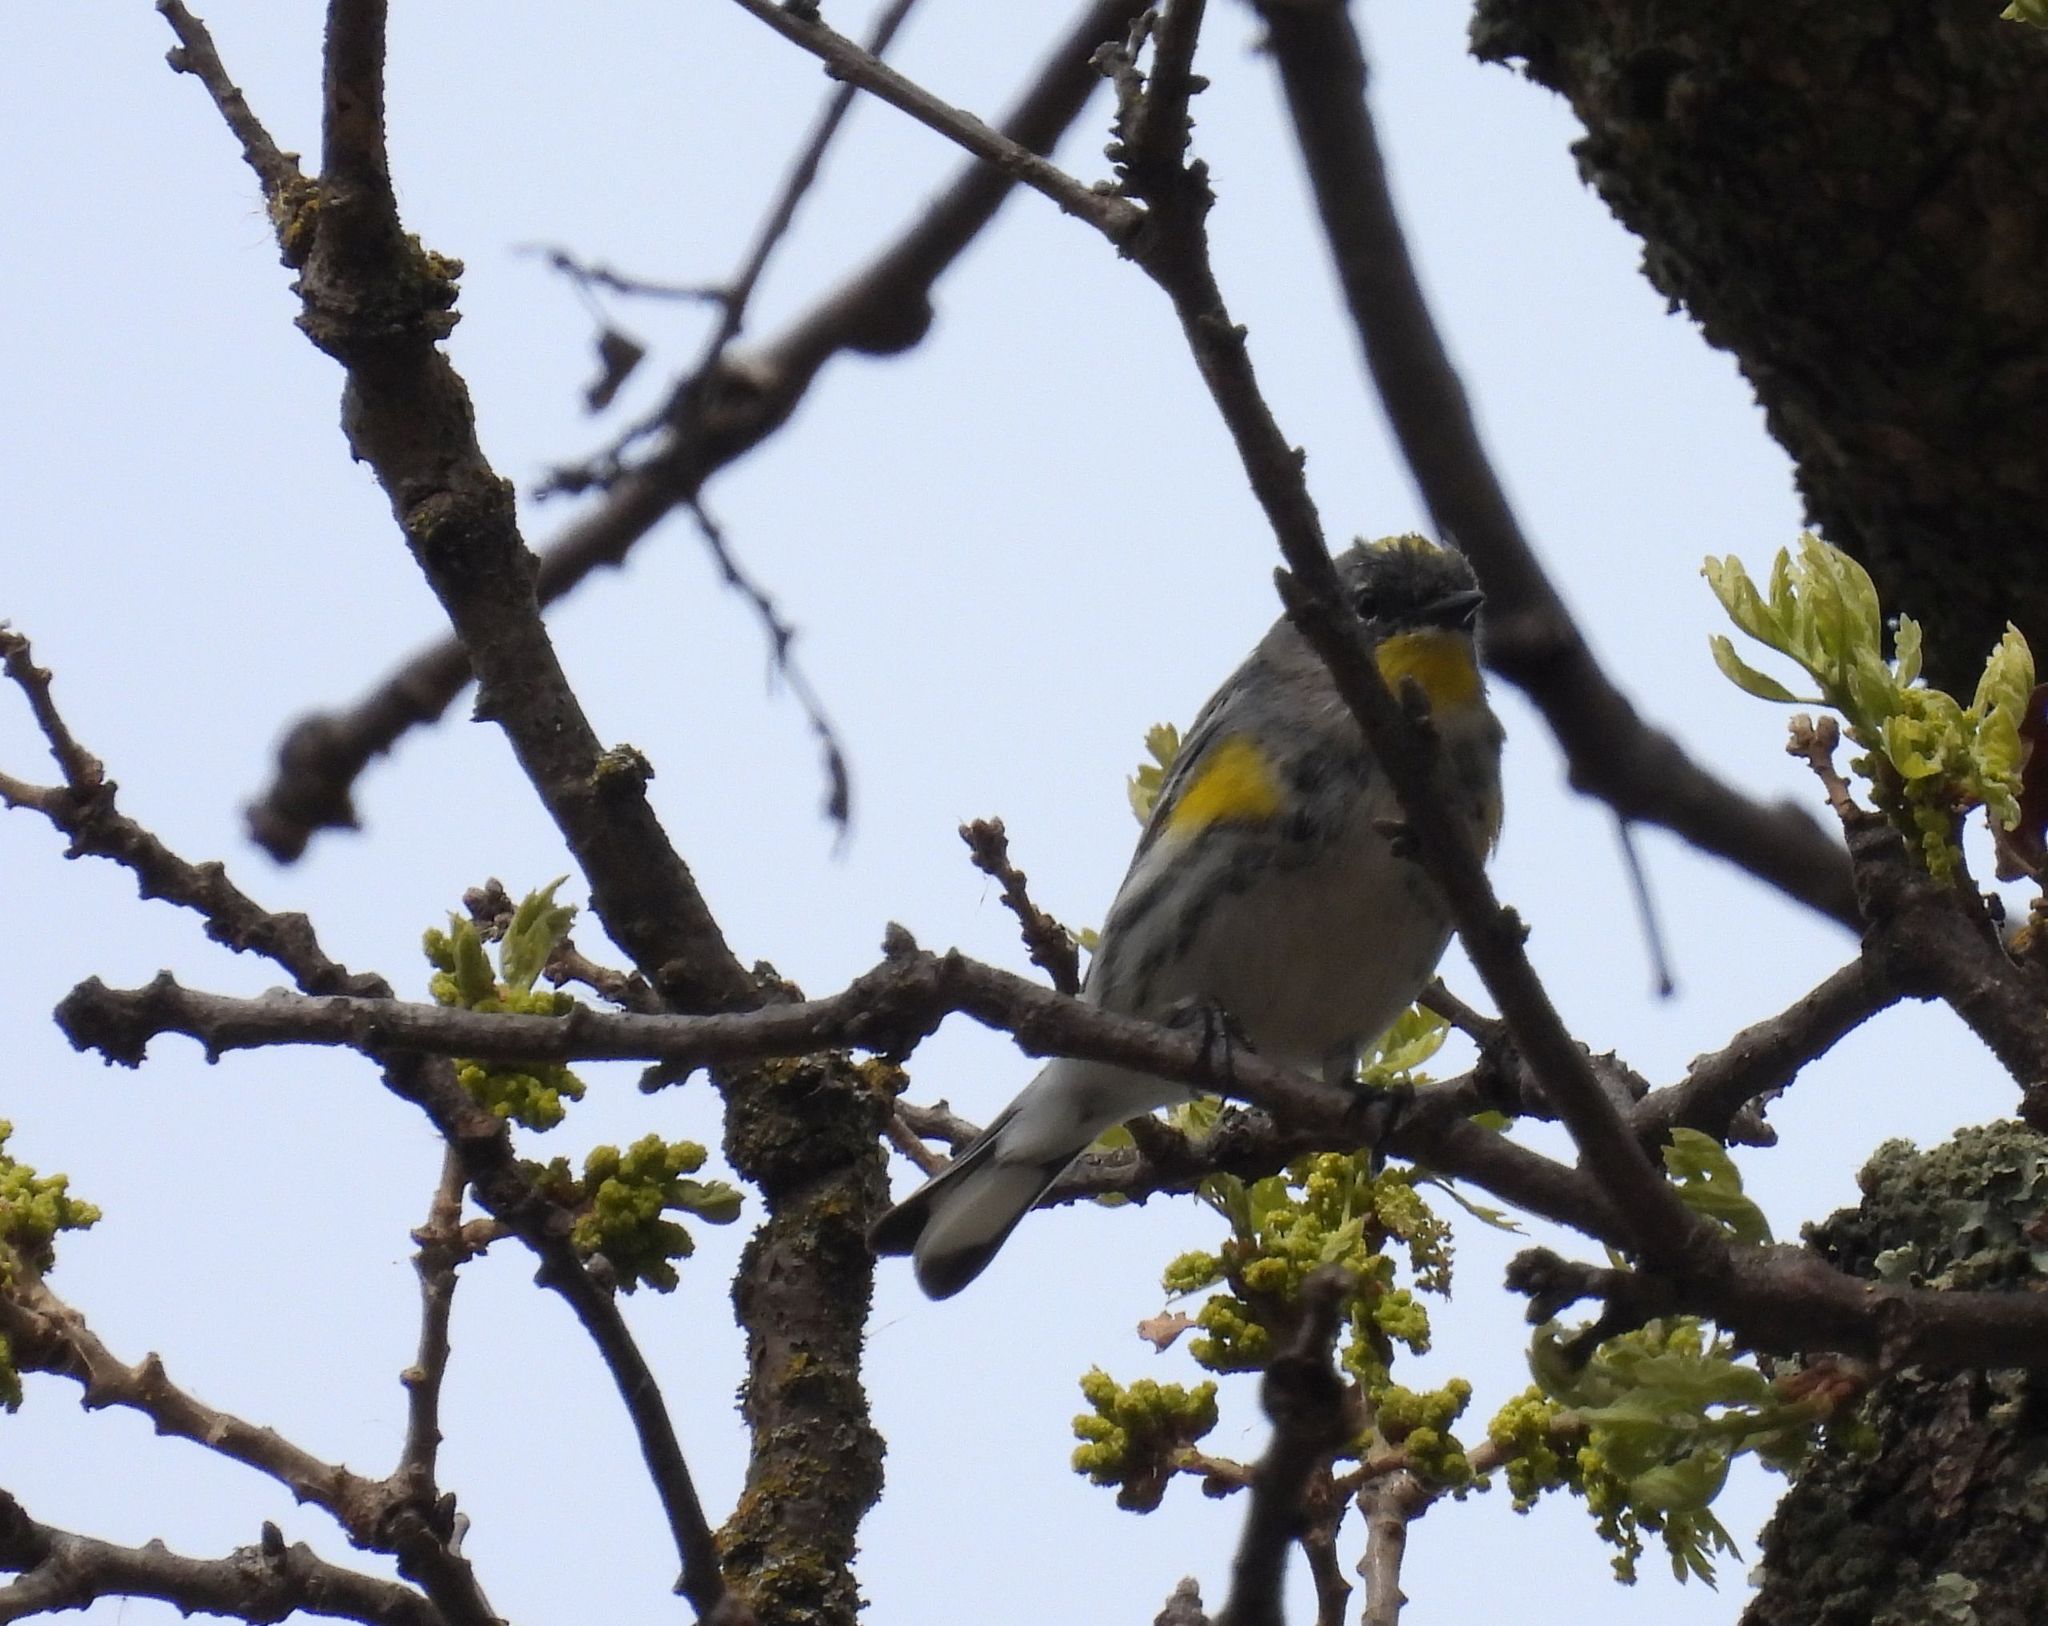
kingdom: Animalia
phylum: Chordata
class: Aves
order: Passeriformes
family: Parulidae
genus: Setophaga
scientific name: Setophaga coronata
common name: Myrtle warbler
